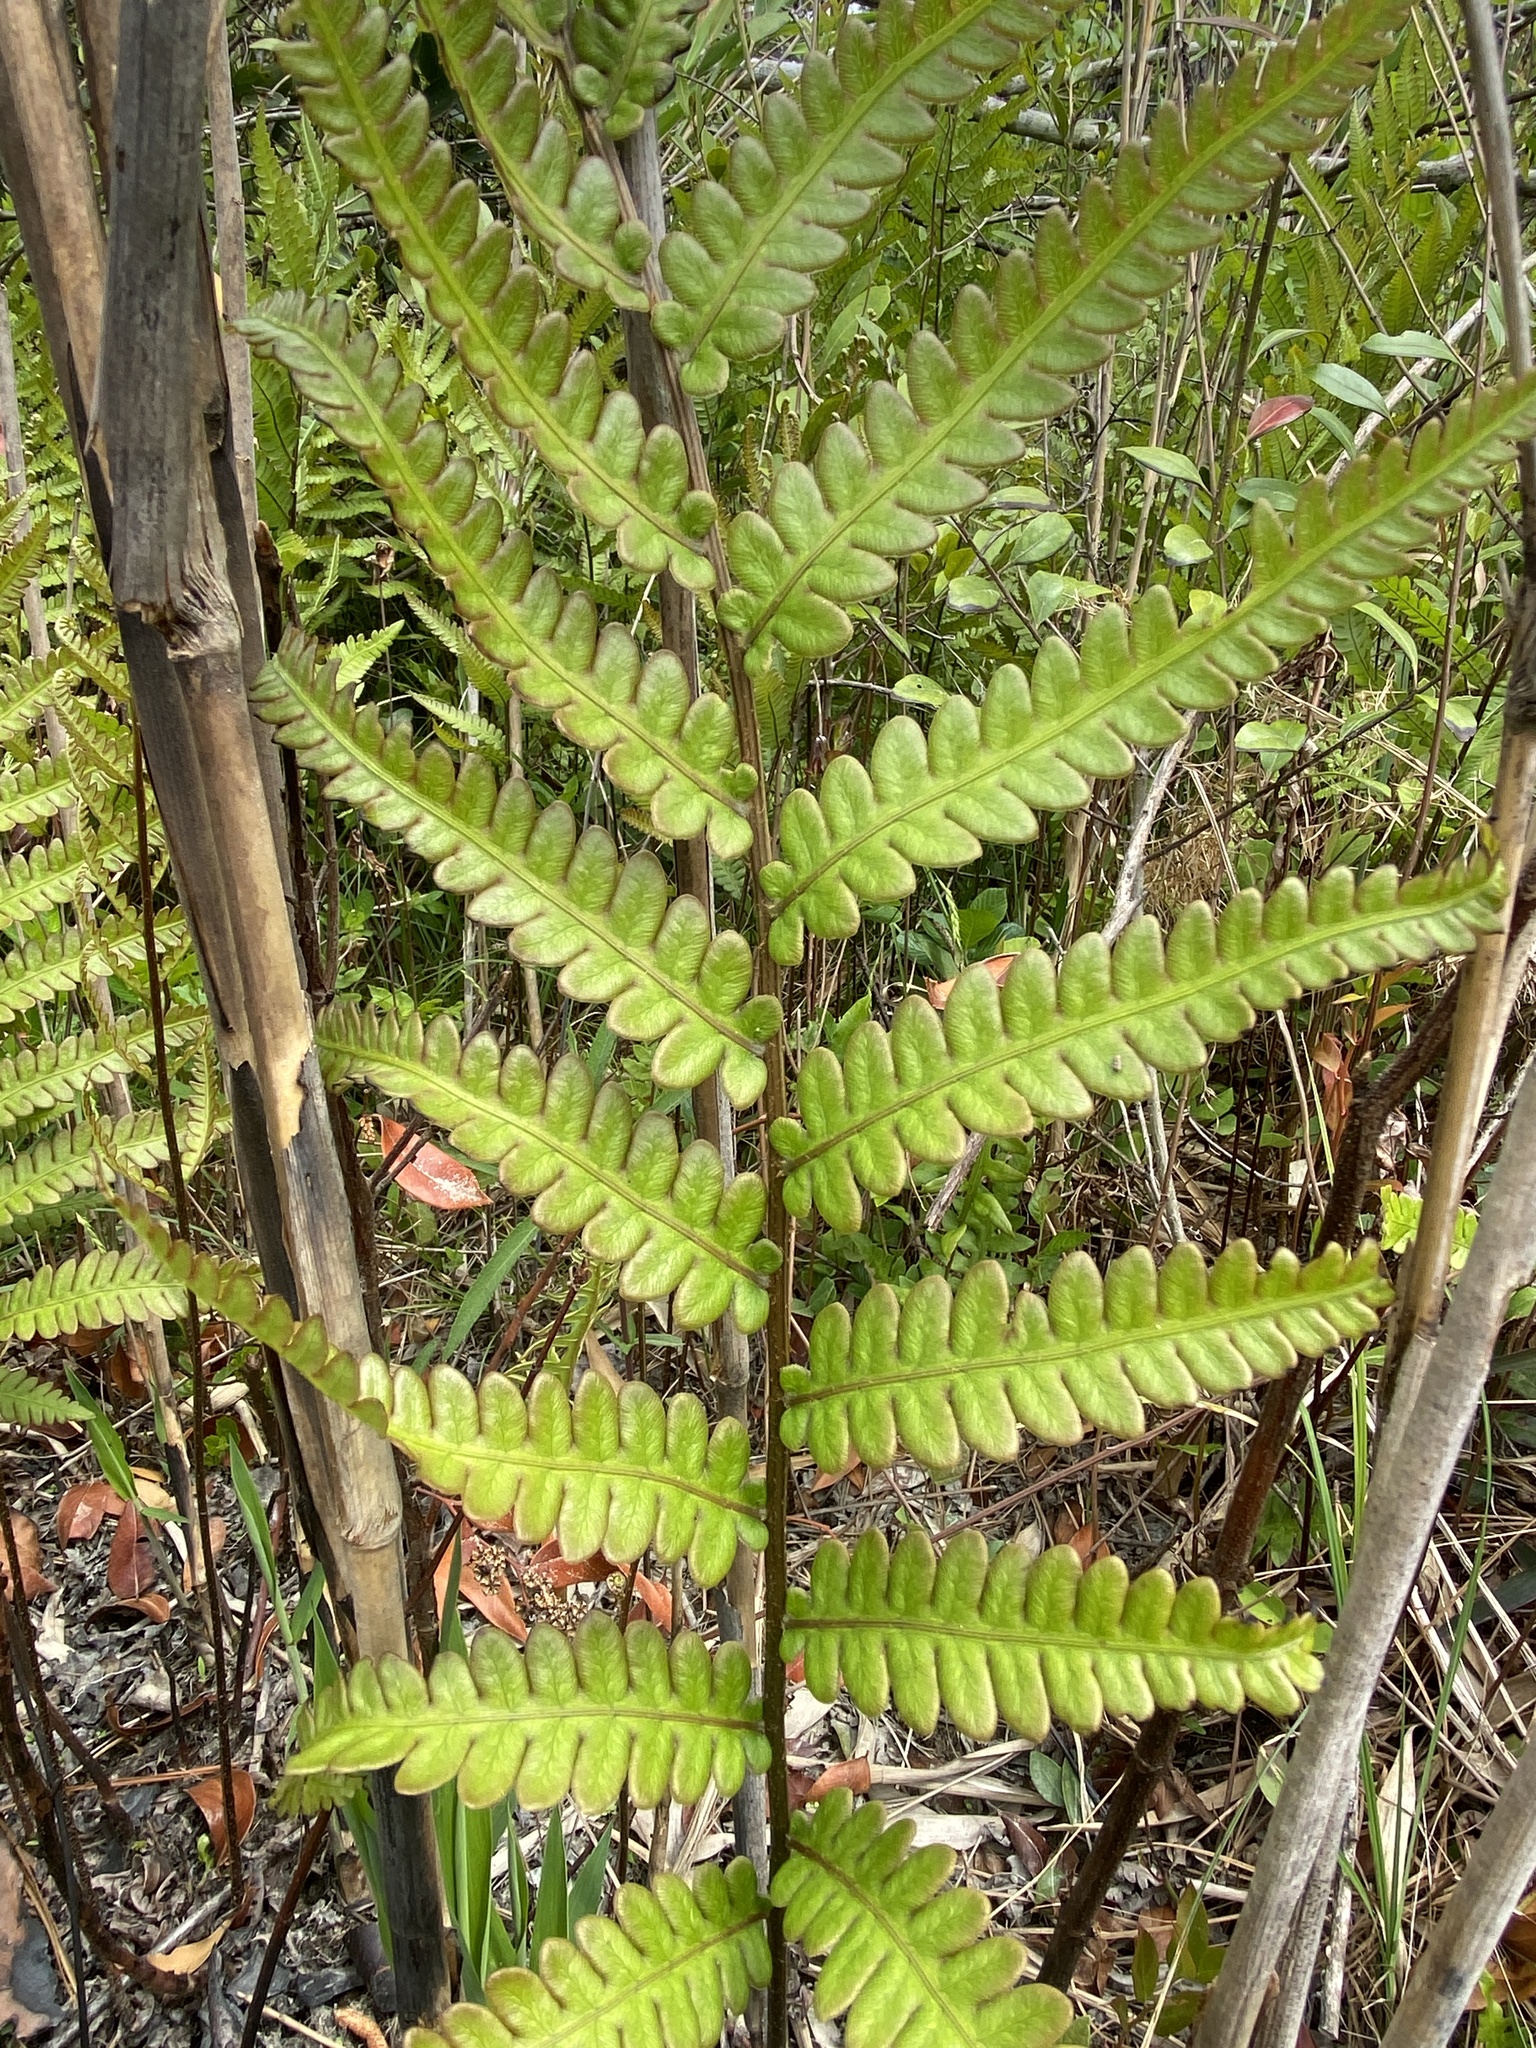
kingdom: Plantae
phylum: Tracheophyta
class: Polypodiopsida
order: Polypodiales
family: Blechnaceae
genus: Anchistea
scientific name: Anchistea virginica
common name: Virginia chain fern
